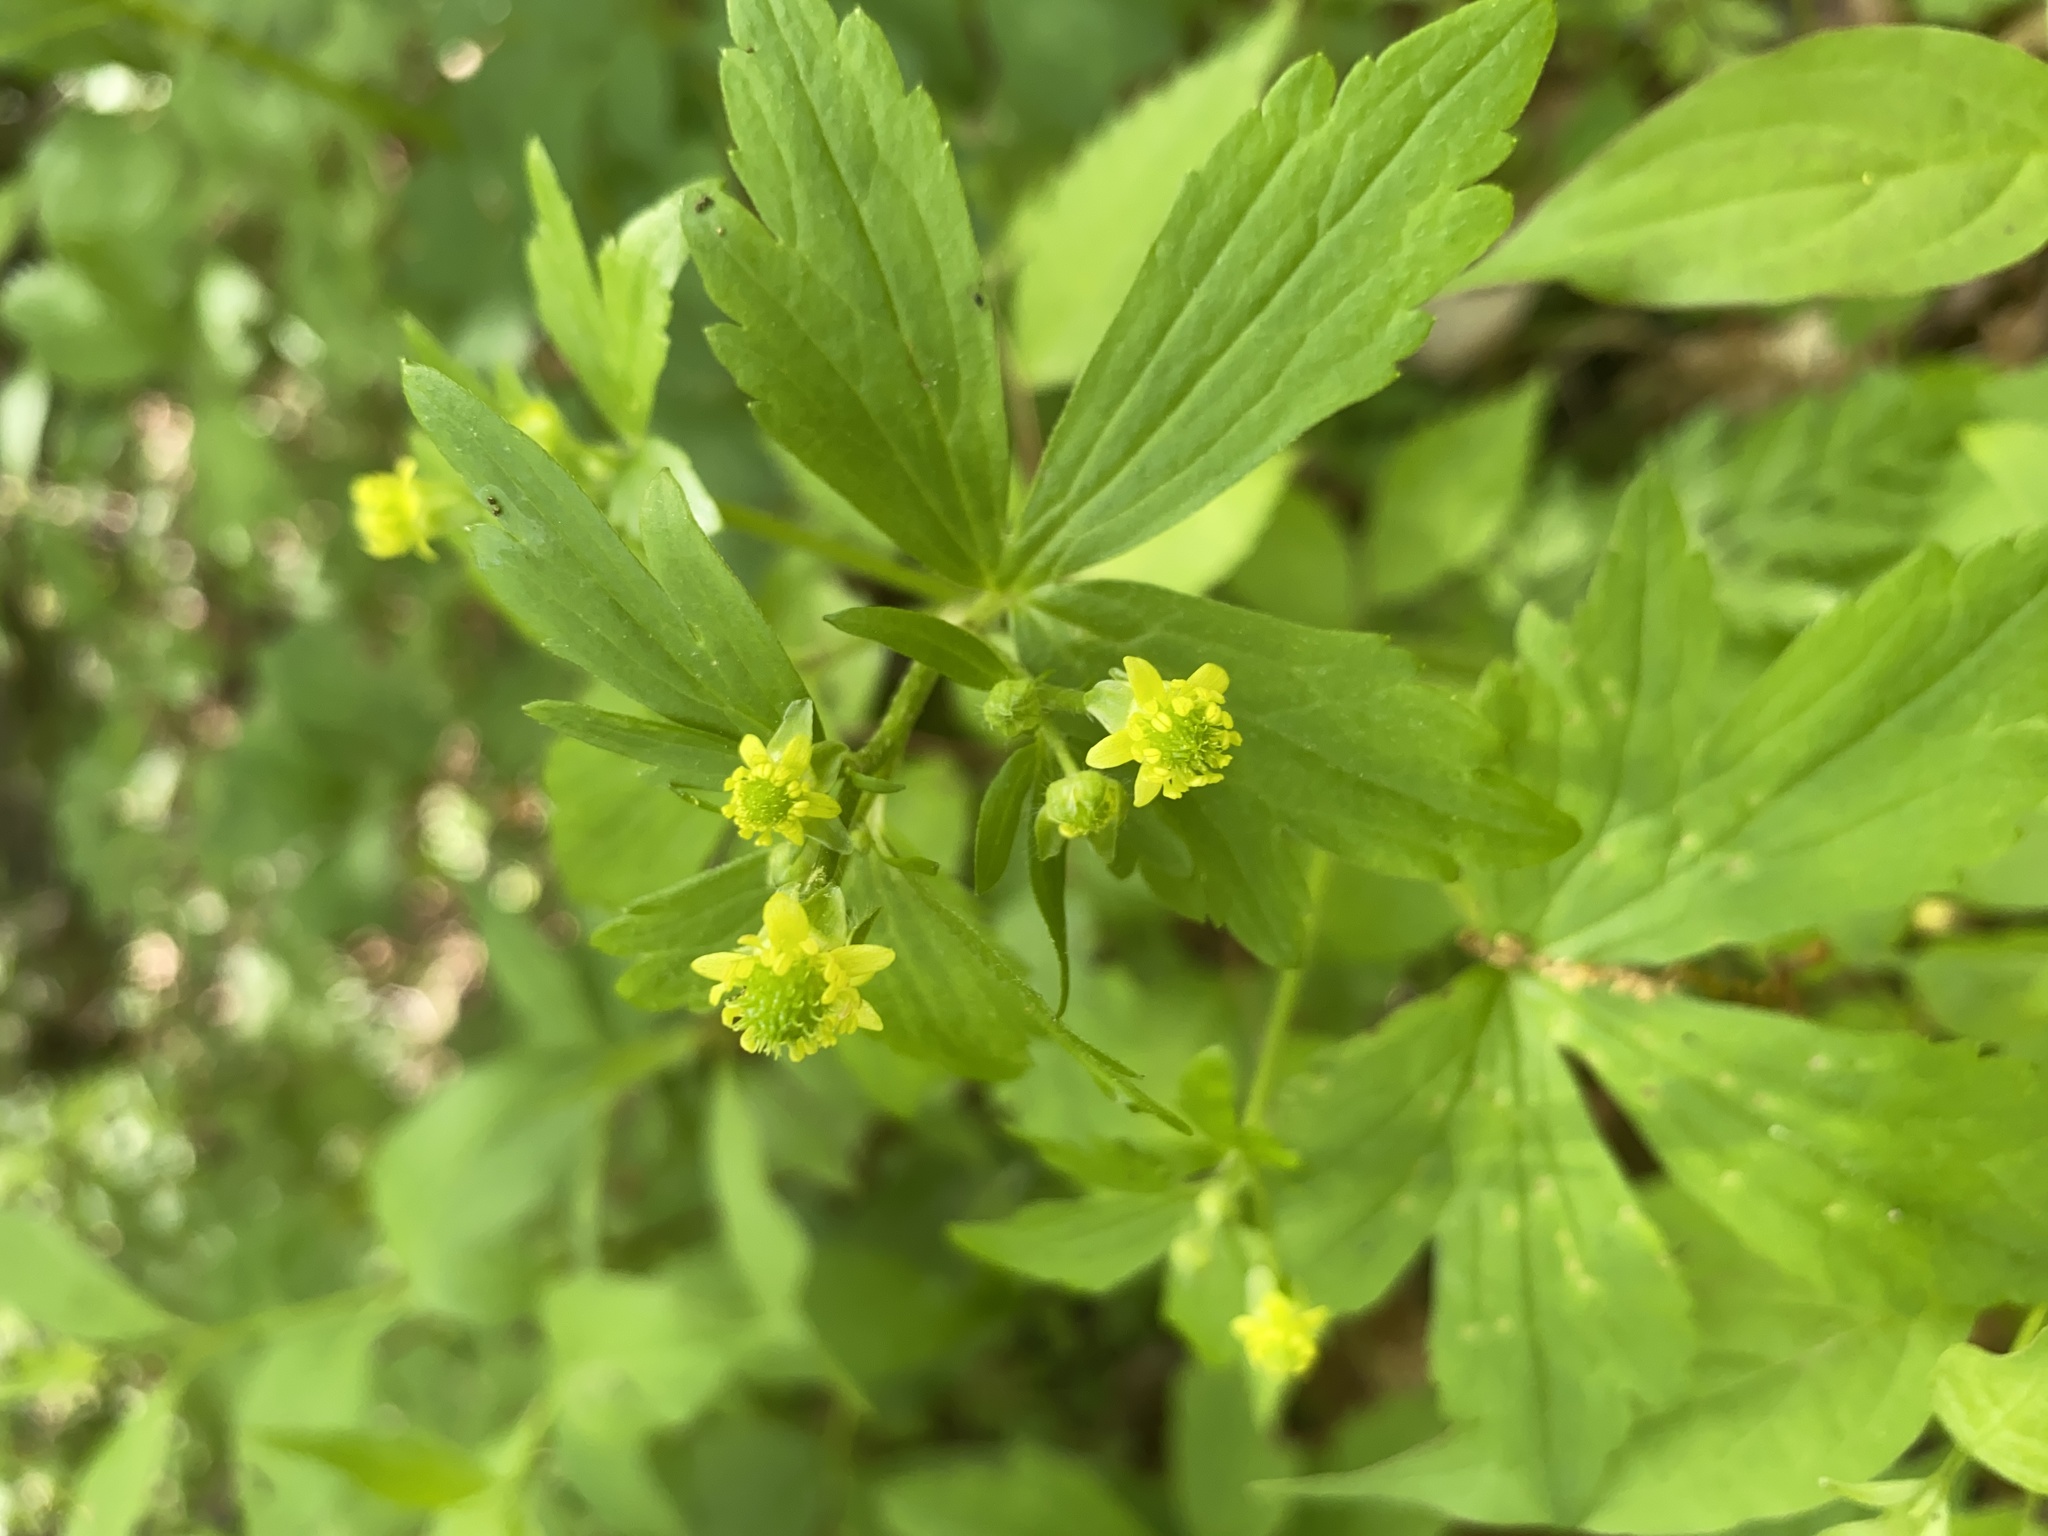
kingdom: Plantae
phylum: Tracheophyta
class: Magnoliopsida
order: Ranunculales
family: Ranunculaceae
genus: Ranunculus
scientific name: Ranunculus recurvatus
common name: Blisterwort
